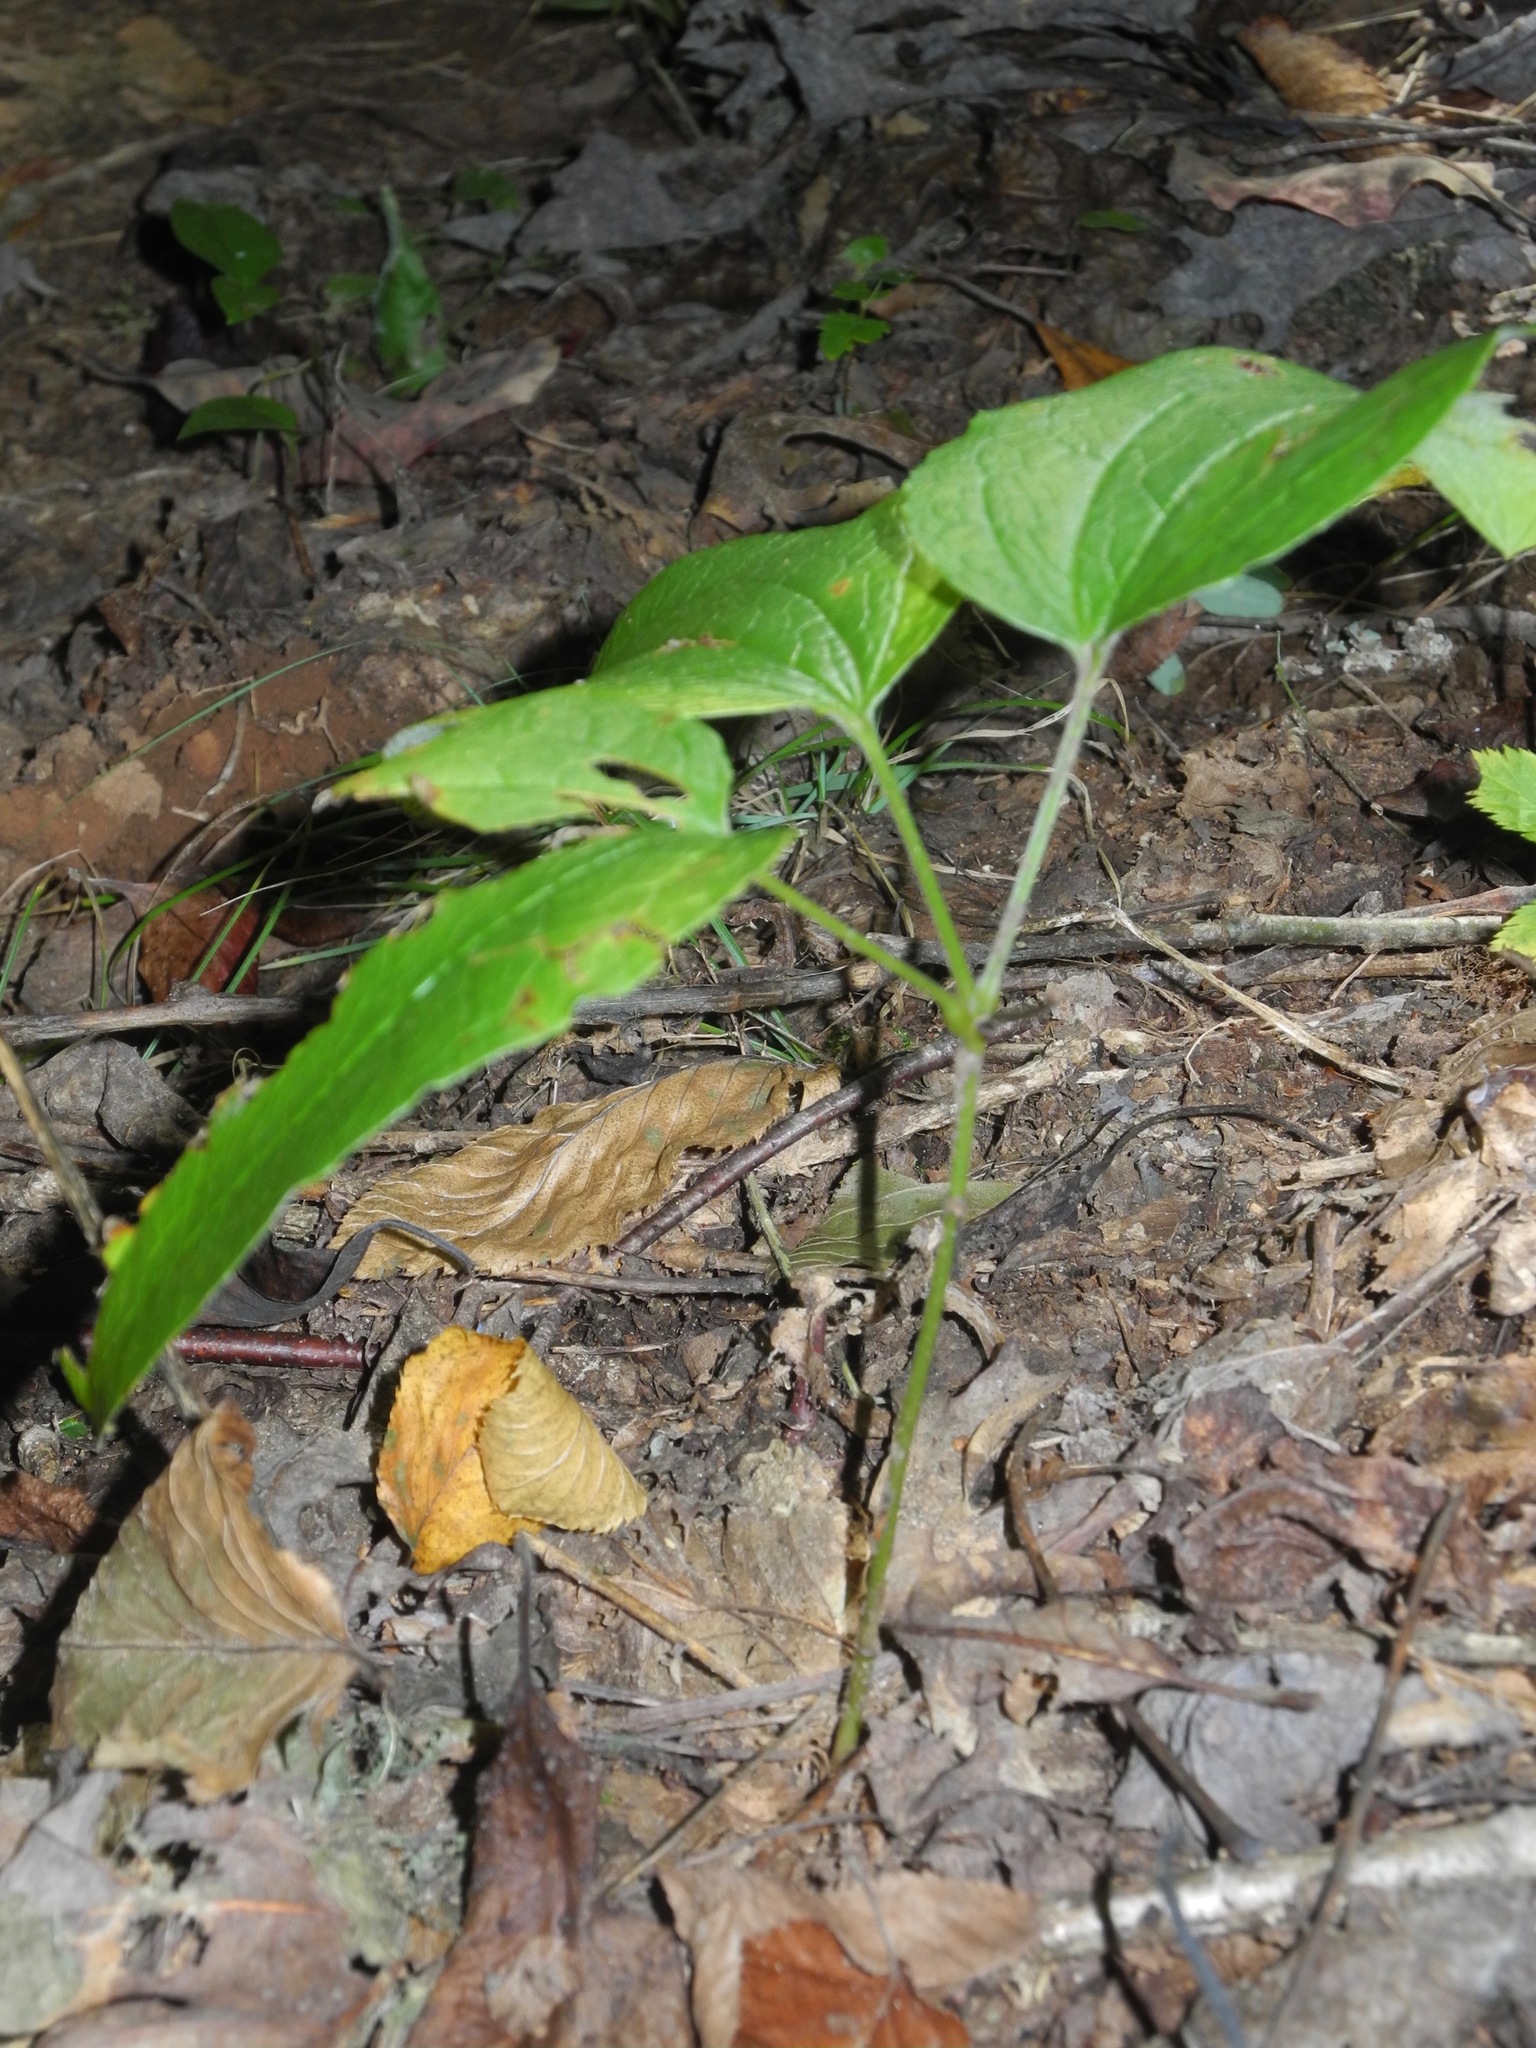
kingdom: Plantae
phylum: Tracheophyta
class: Liliopsida
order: Liliales
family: Smilacaceae
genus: Smilax
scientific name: Smilax hugeri
